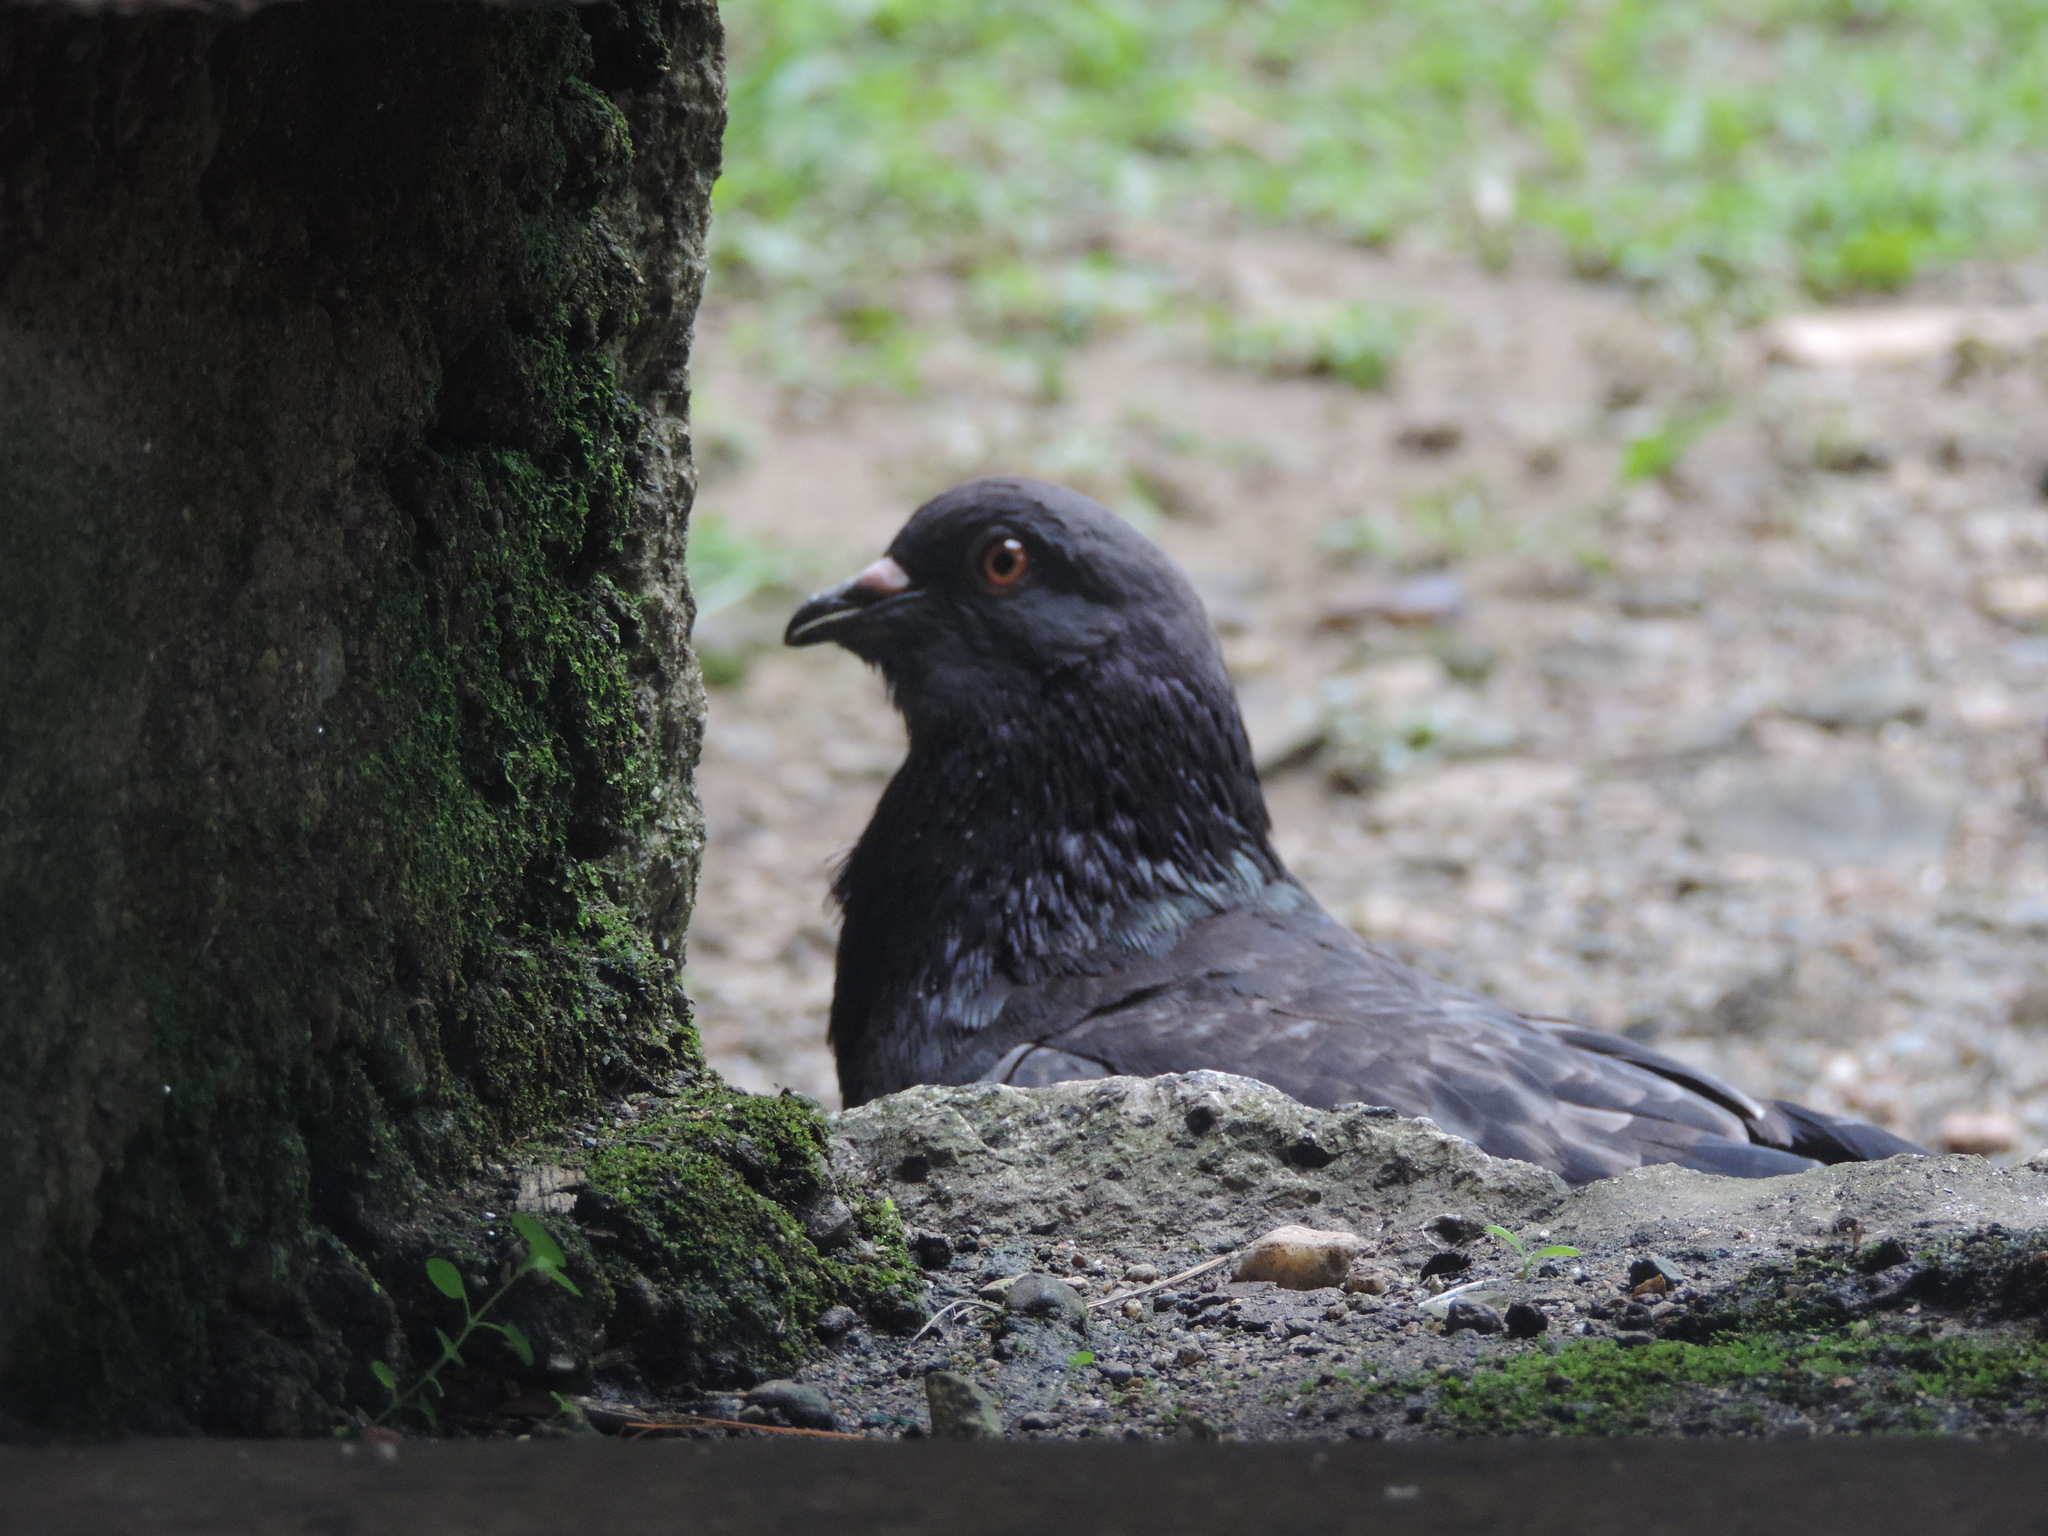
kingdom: Animalia
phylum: Chordata
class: Aves
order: Columbiformes
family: Columbidae
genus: Columba
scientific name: Columba livia
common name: Rock pigeon
